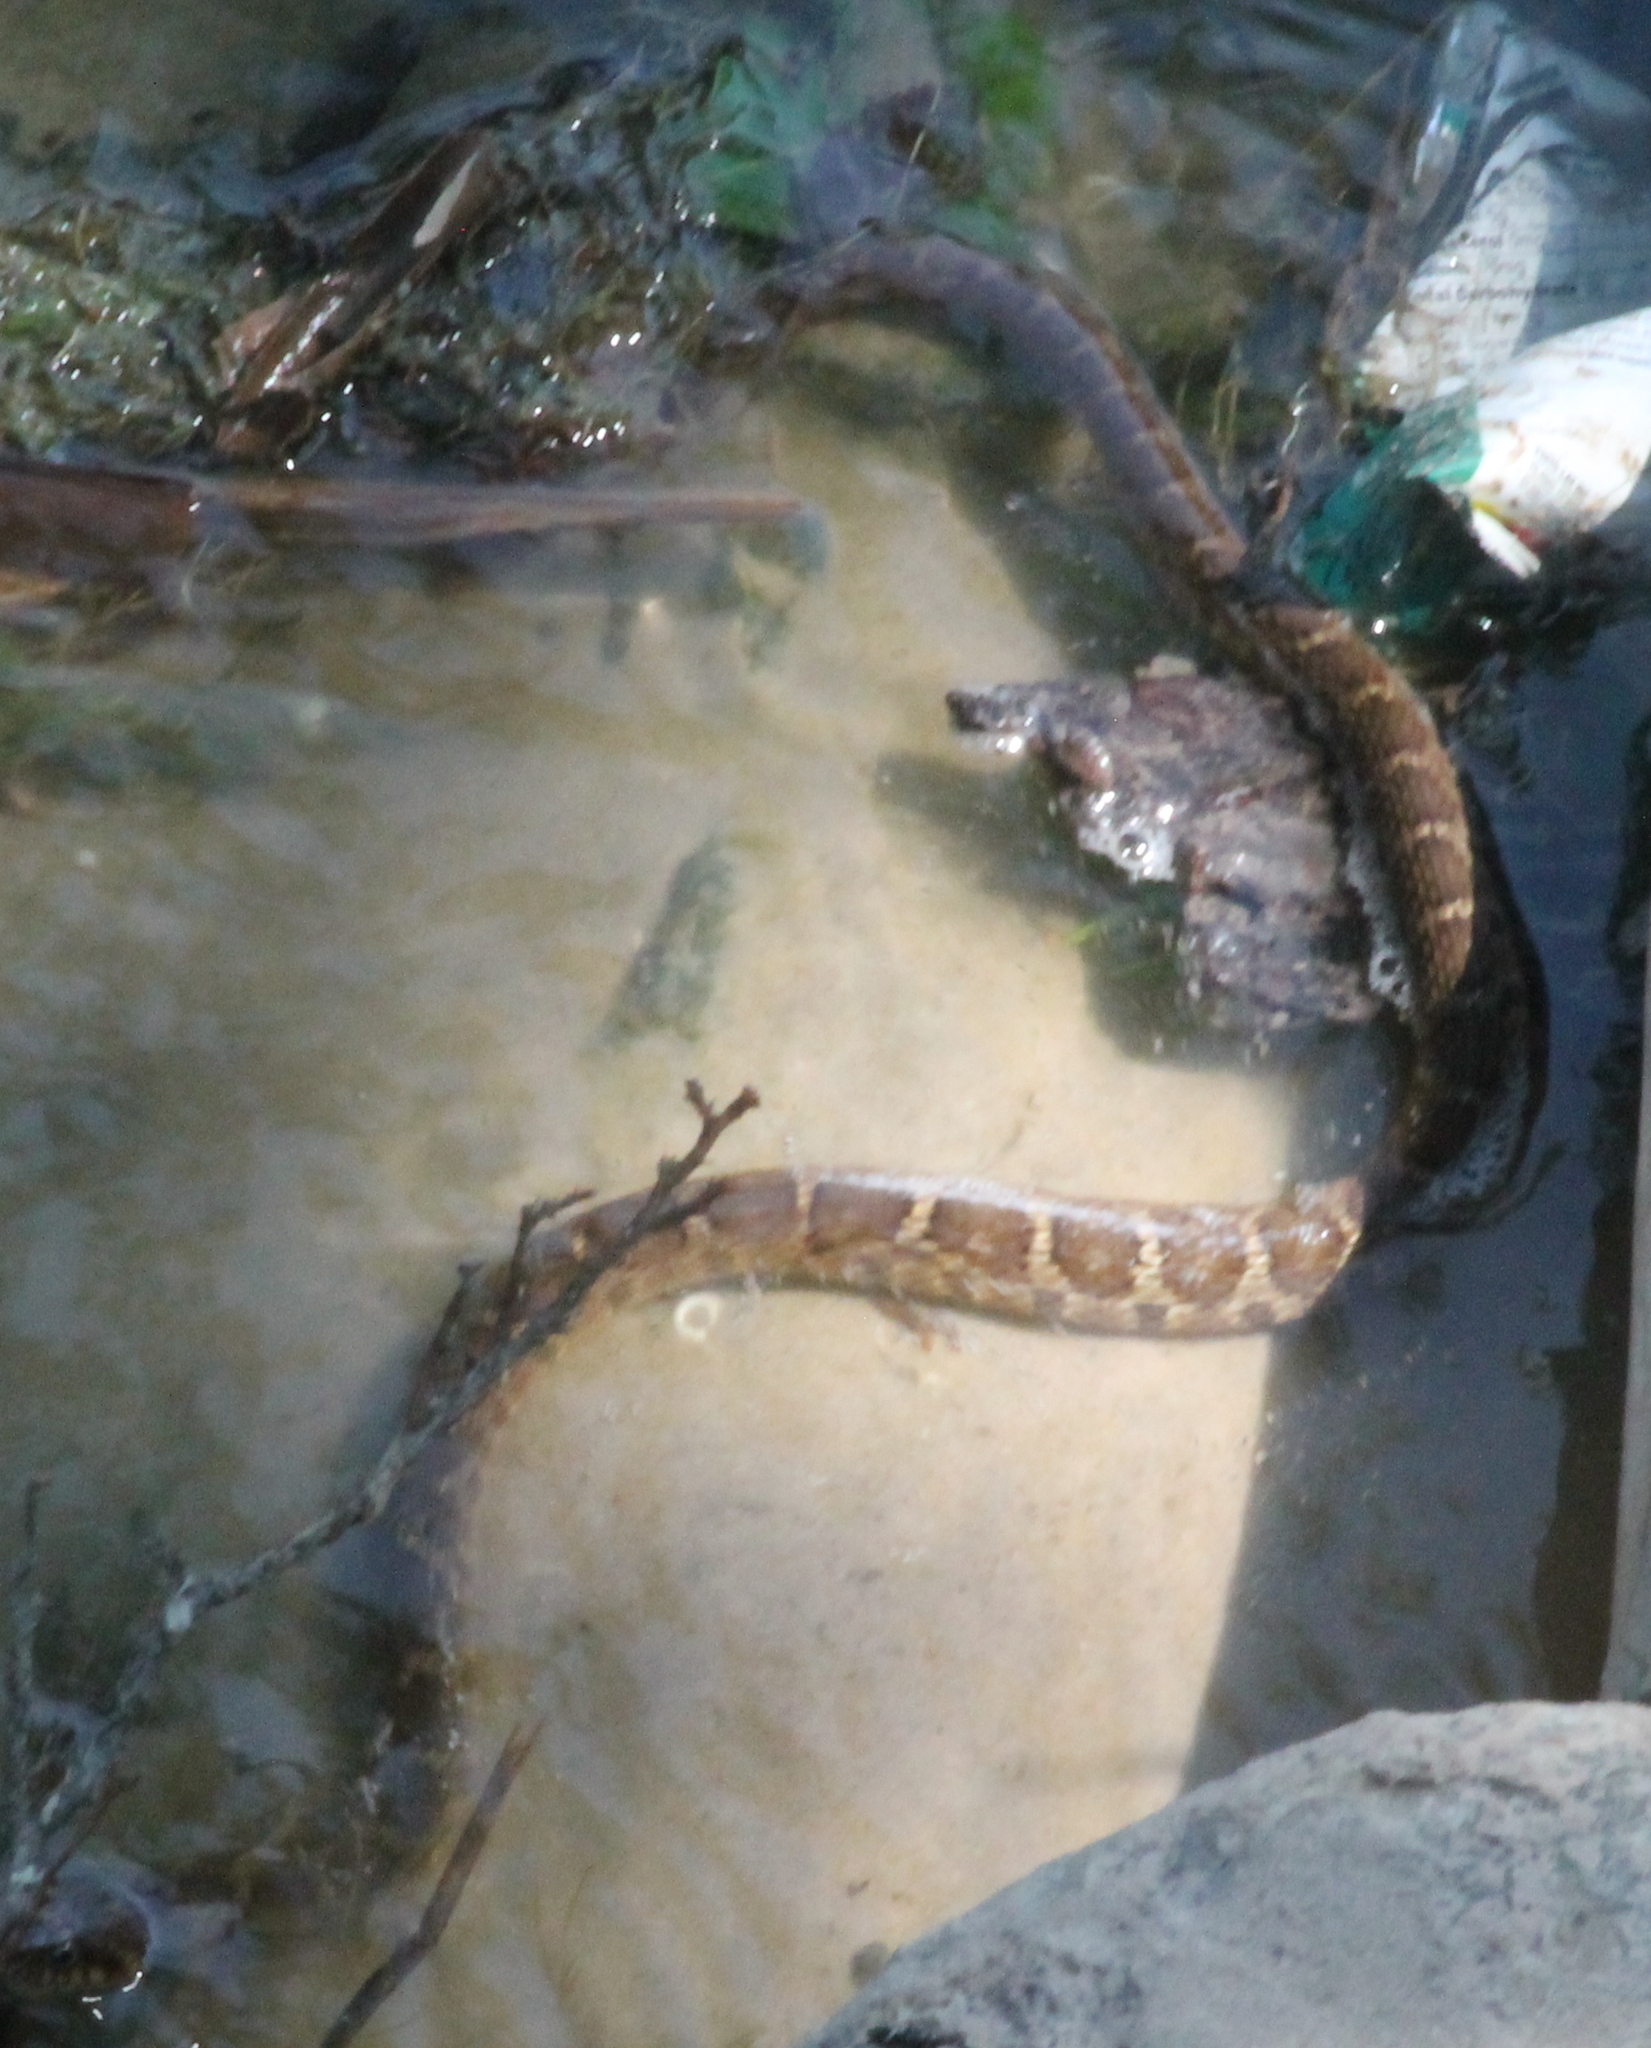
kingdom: Animalia
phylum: Chordata
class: Squamata
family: Colubridae
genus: Nerodia
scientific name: Nerodia erythrogaster
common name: Plainbelly water snake
